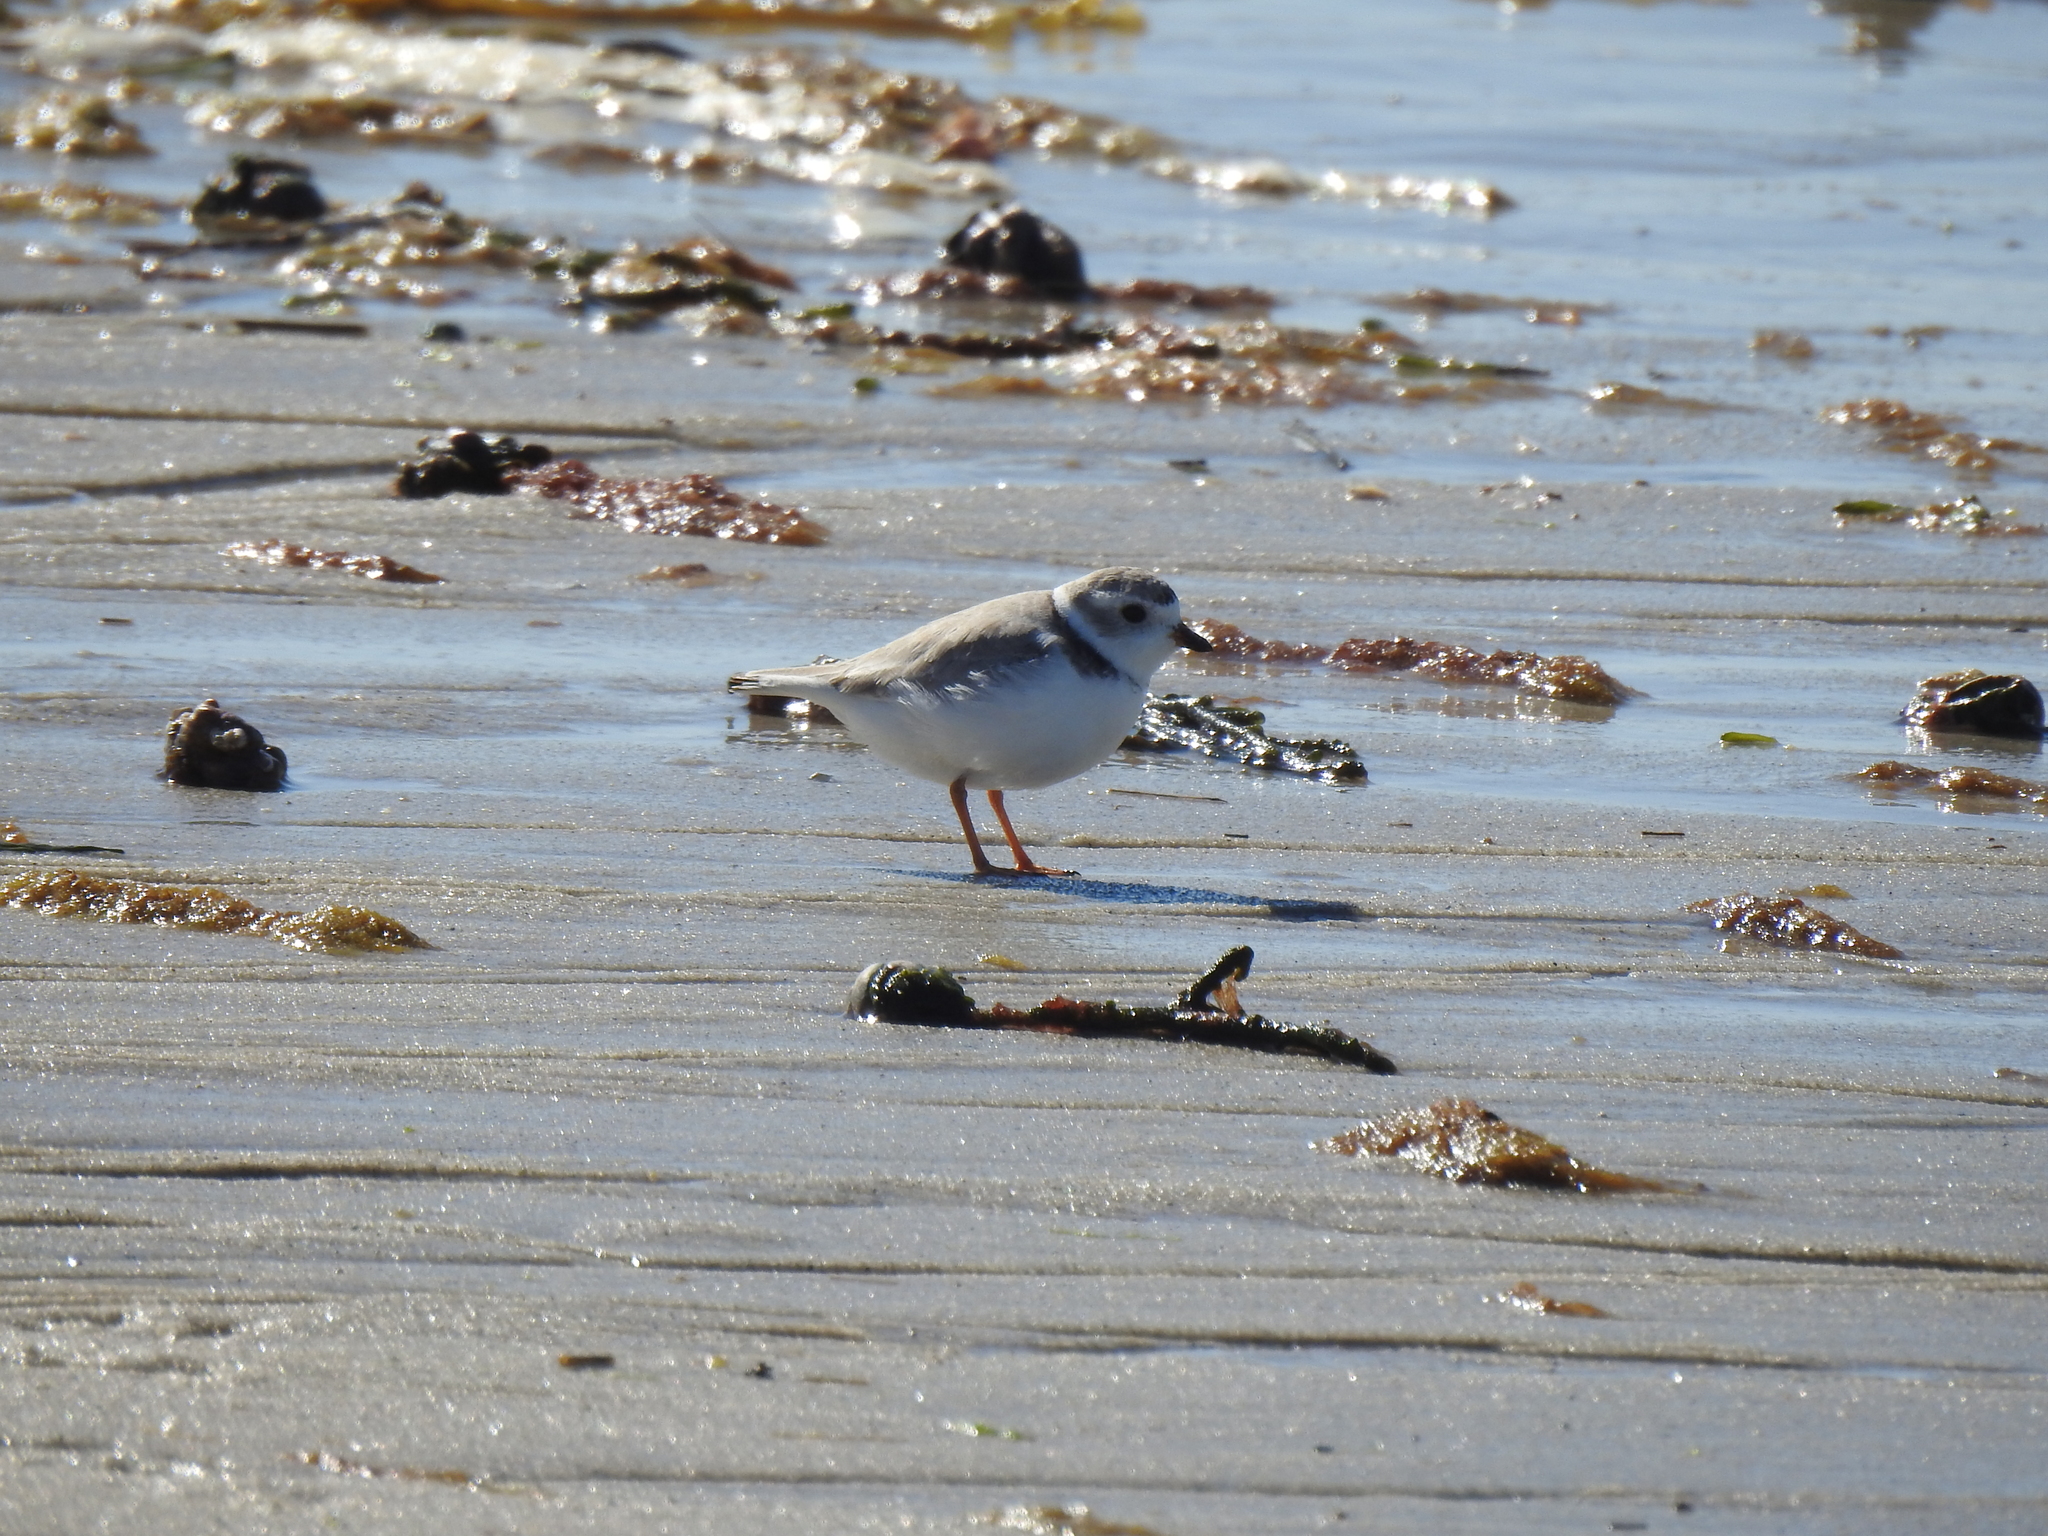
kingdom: Animalia
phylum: Chordata
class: Aves
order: Charadriiformes
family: Charadriidae
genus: Charadrius
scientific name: Charadrius melodus
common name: Piping plover
